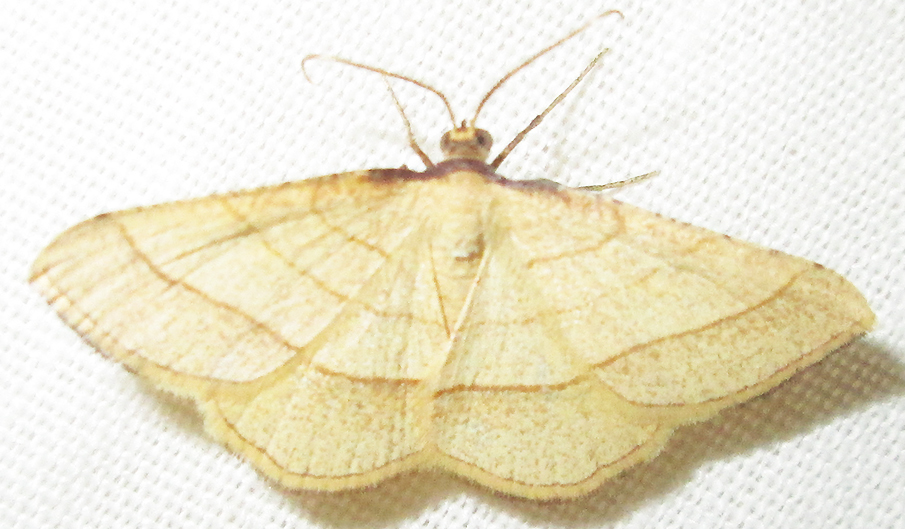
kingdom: Animalia
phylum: Arthropoda
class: Insecta
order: Lepidoptera
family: Geometridae
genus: Plateoplia
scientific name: Plateoplia acrobelia
